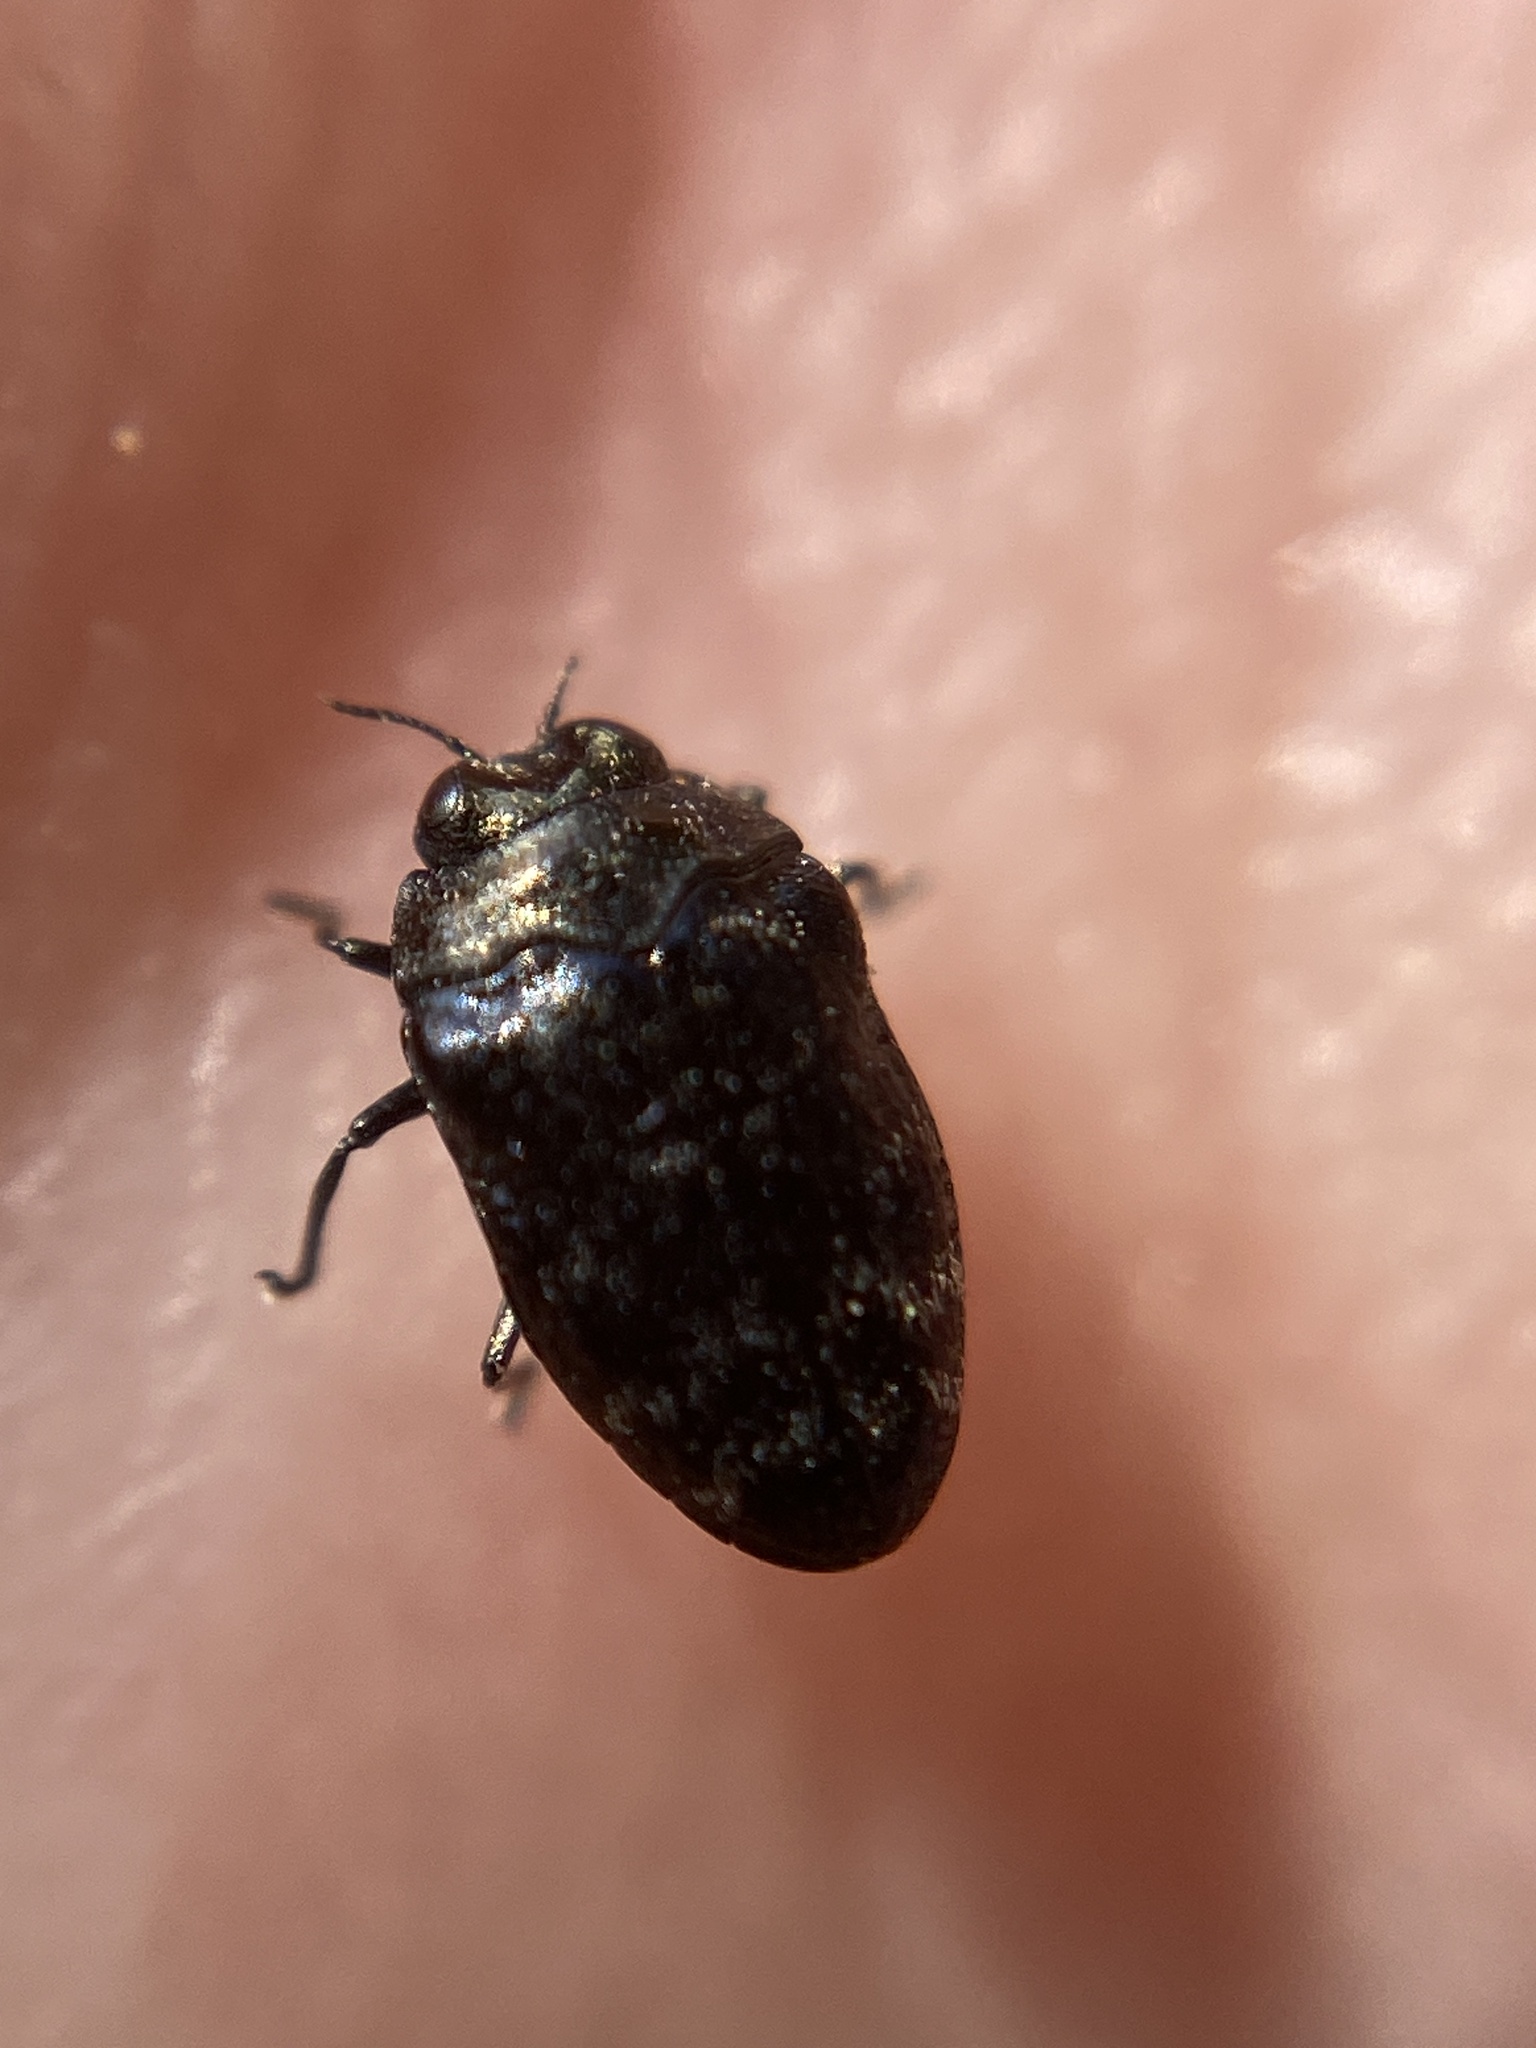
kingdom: Animalia
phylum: Arthropoda
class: Insecta
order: Coleoptera
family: Buprestidae
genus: Trachys
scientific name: Trachys minutus
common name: Metallic wood-boring beetle
